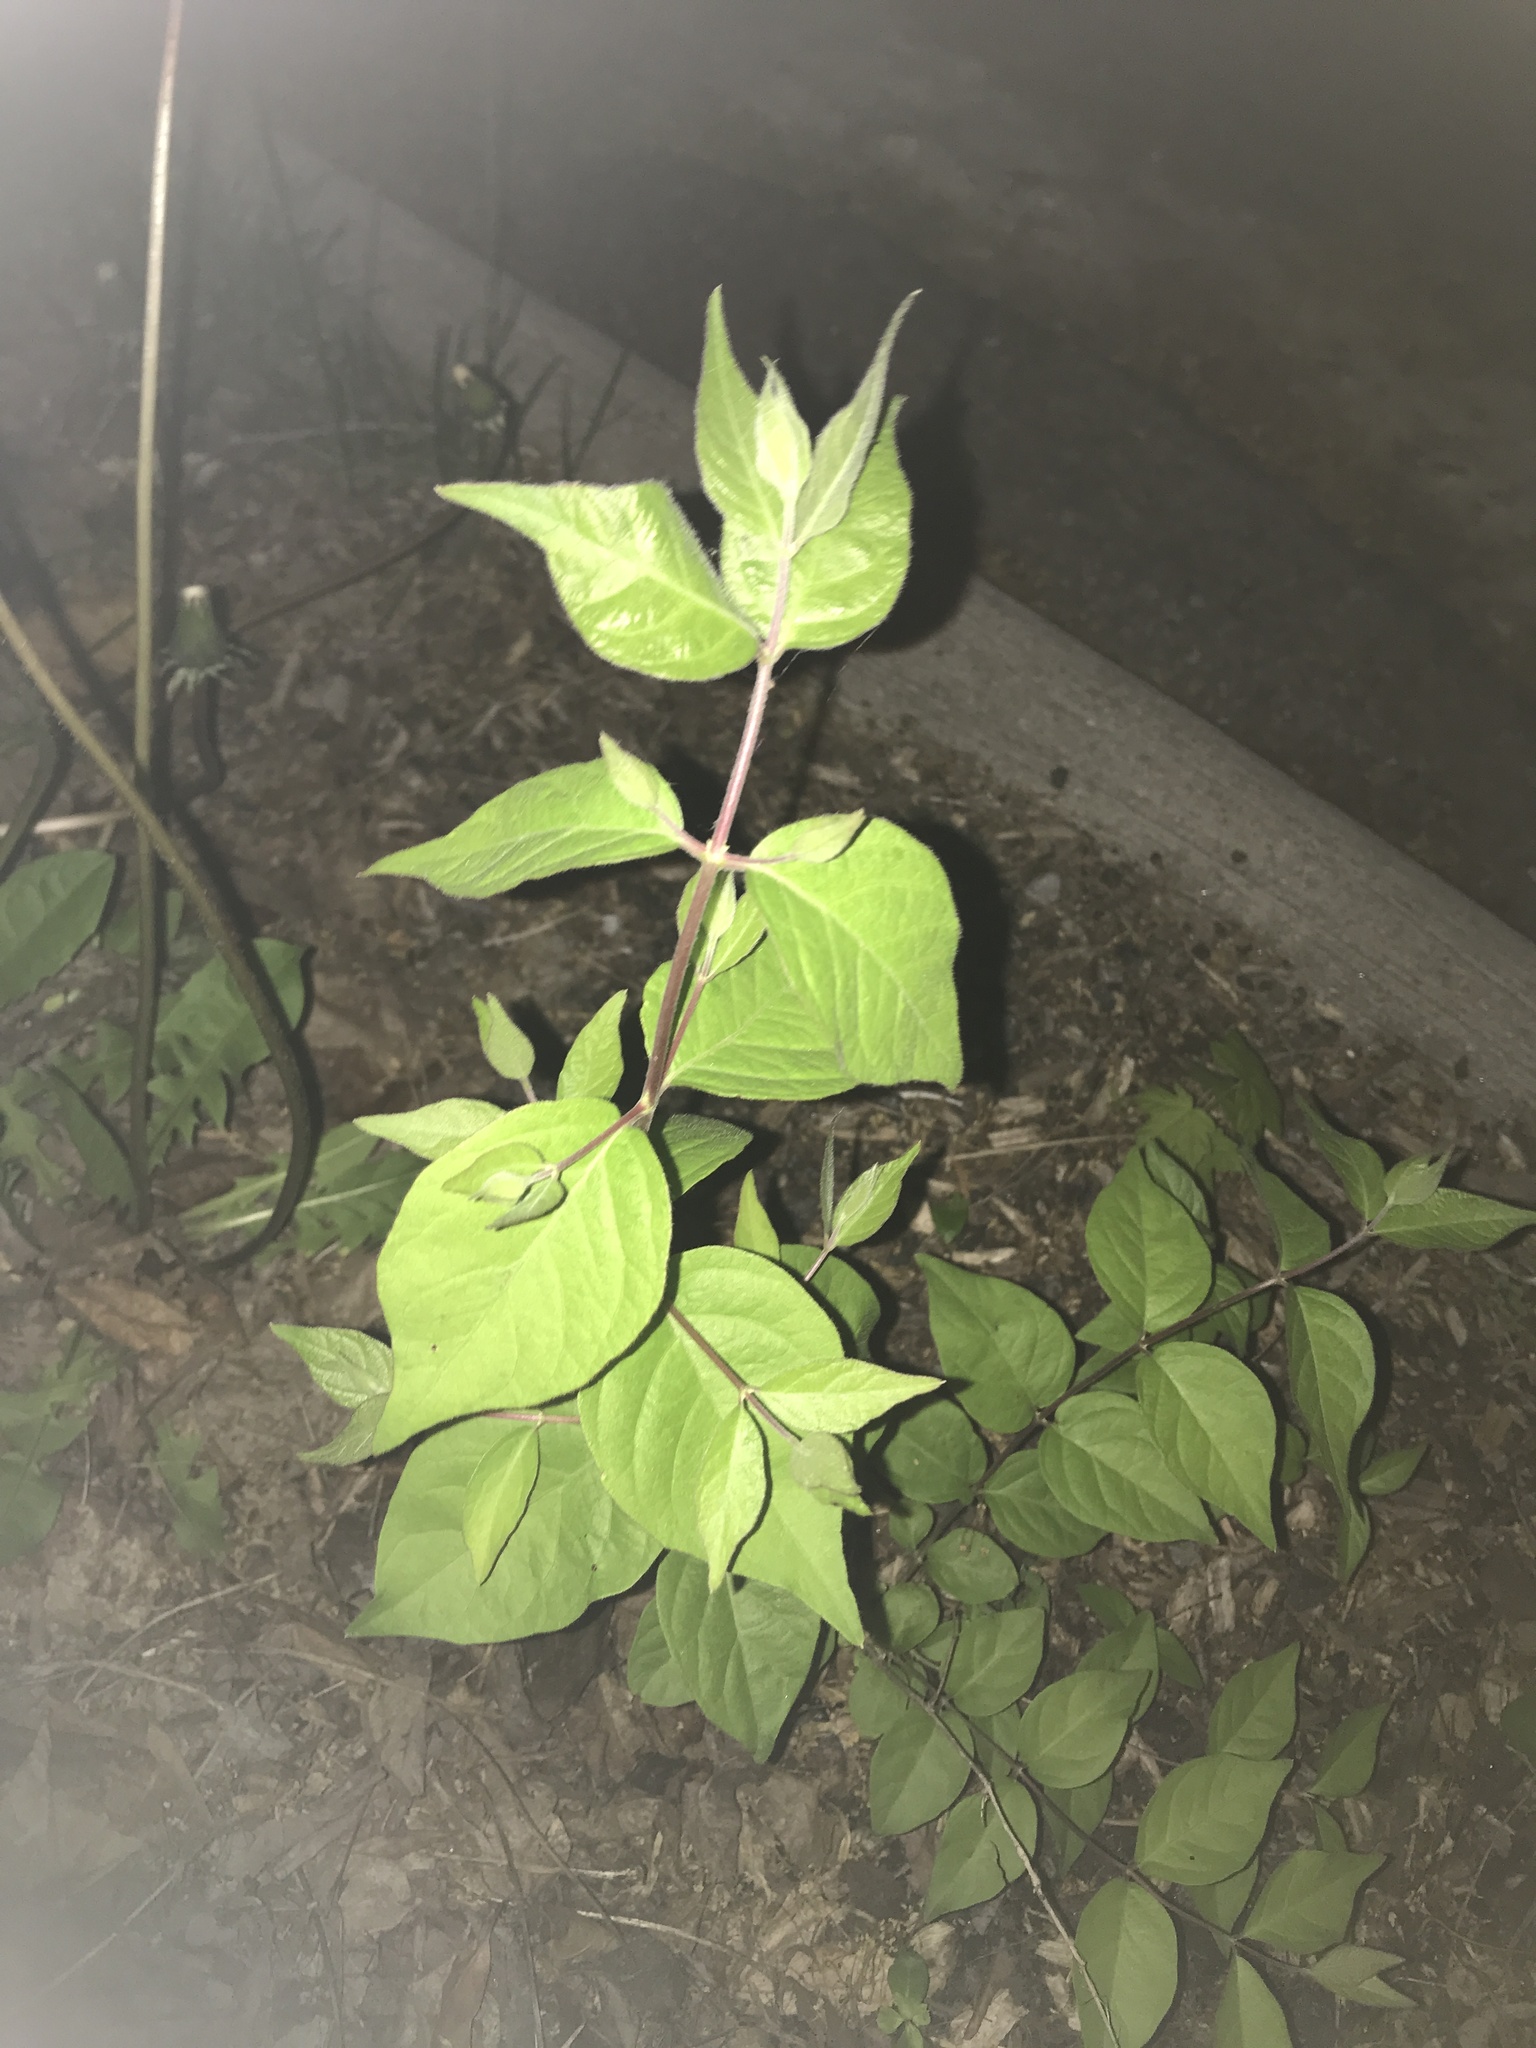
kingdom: Plantae
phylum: Tracheophyta
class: Magnoliopsida
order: Dipsacales
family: Caprifoliaceae
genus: Lonicera
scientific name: Lonicera maackii
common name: Amur honeysuckle
